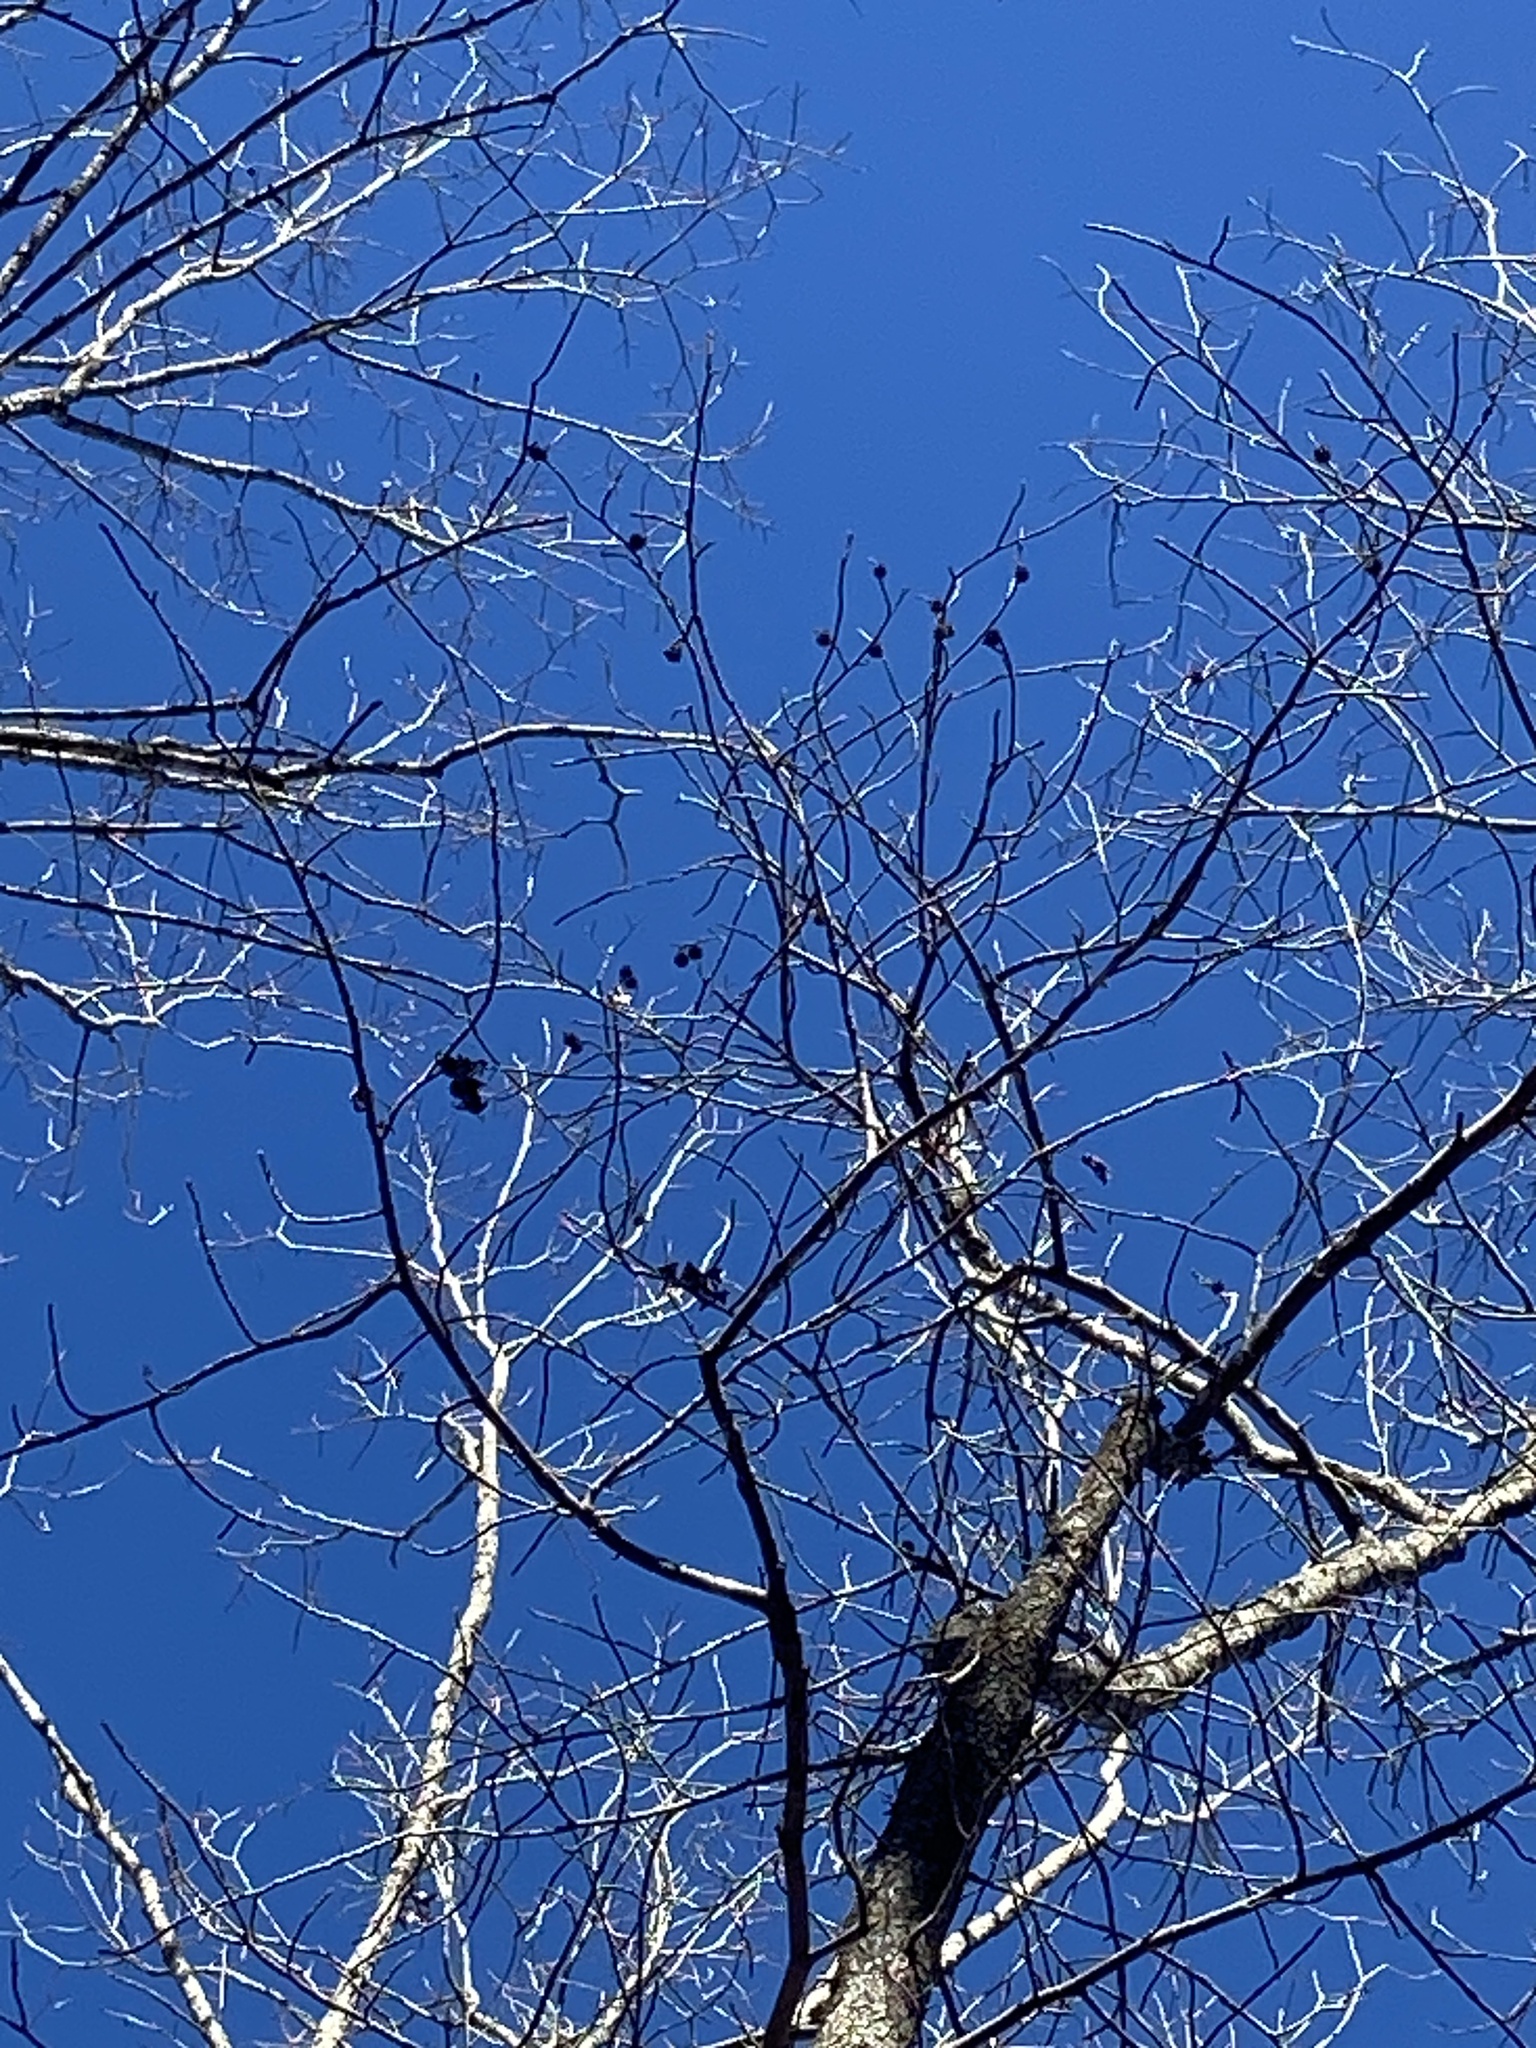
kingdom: Plantae
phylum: Tracheophyta
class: Magnoliopsida
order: Saxifragales
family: Altingiaceae
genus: Liquidambar
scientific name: Liquidambar styraciflua
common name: Sweet gum
